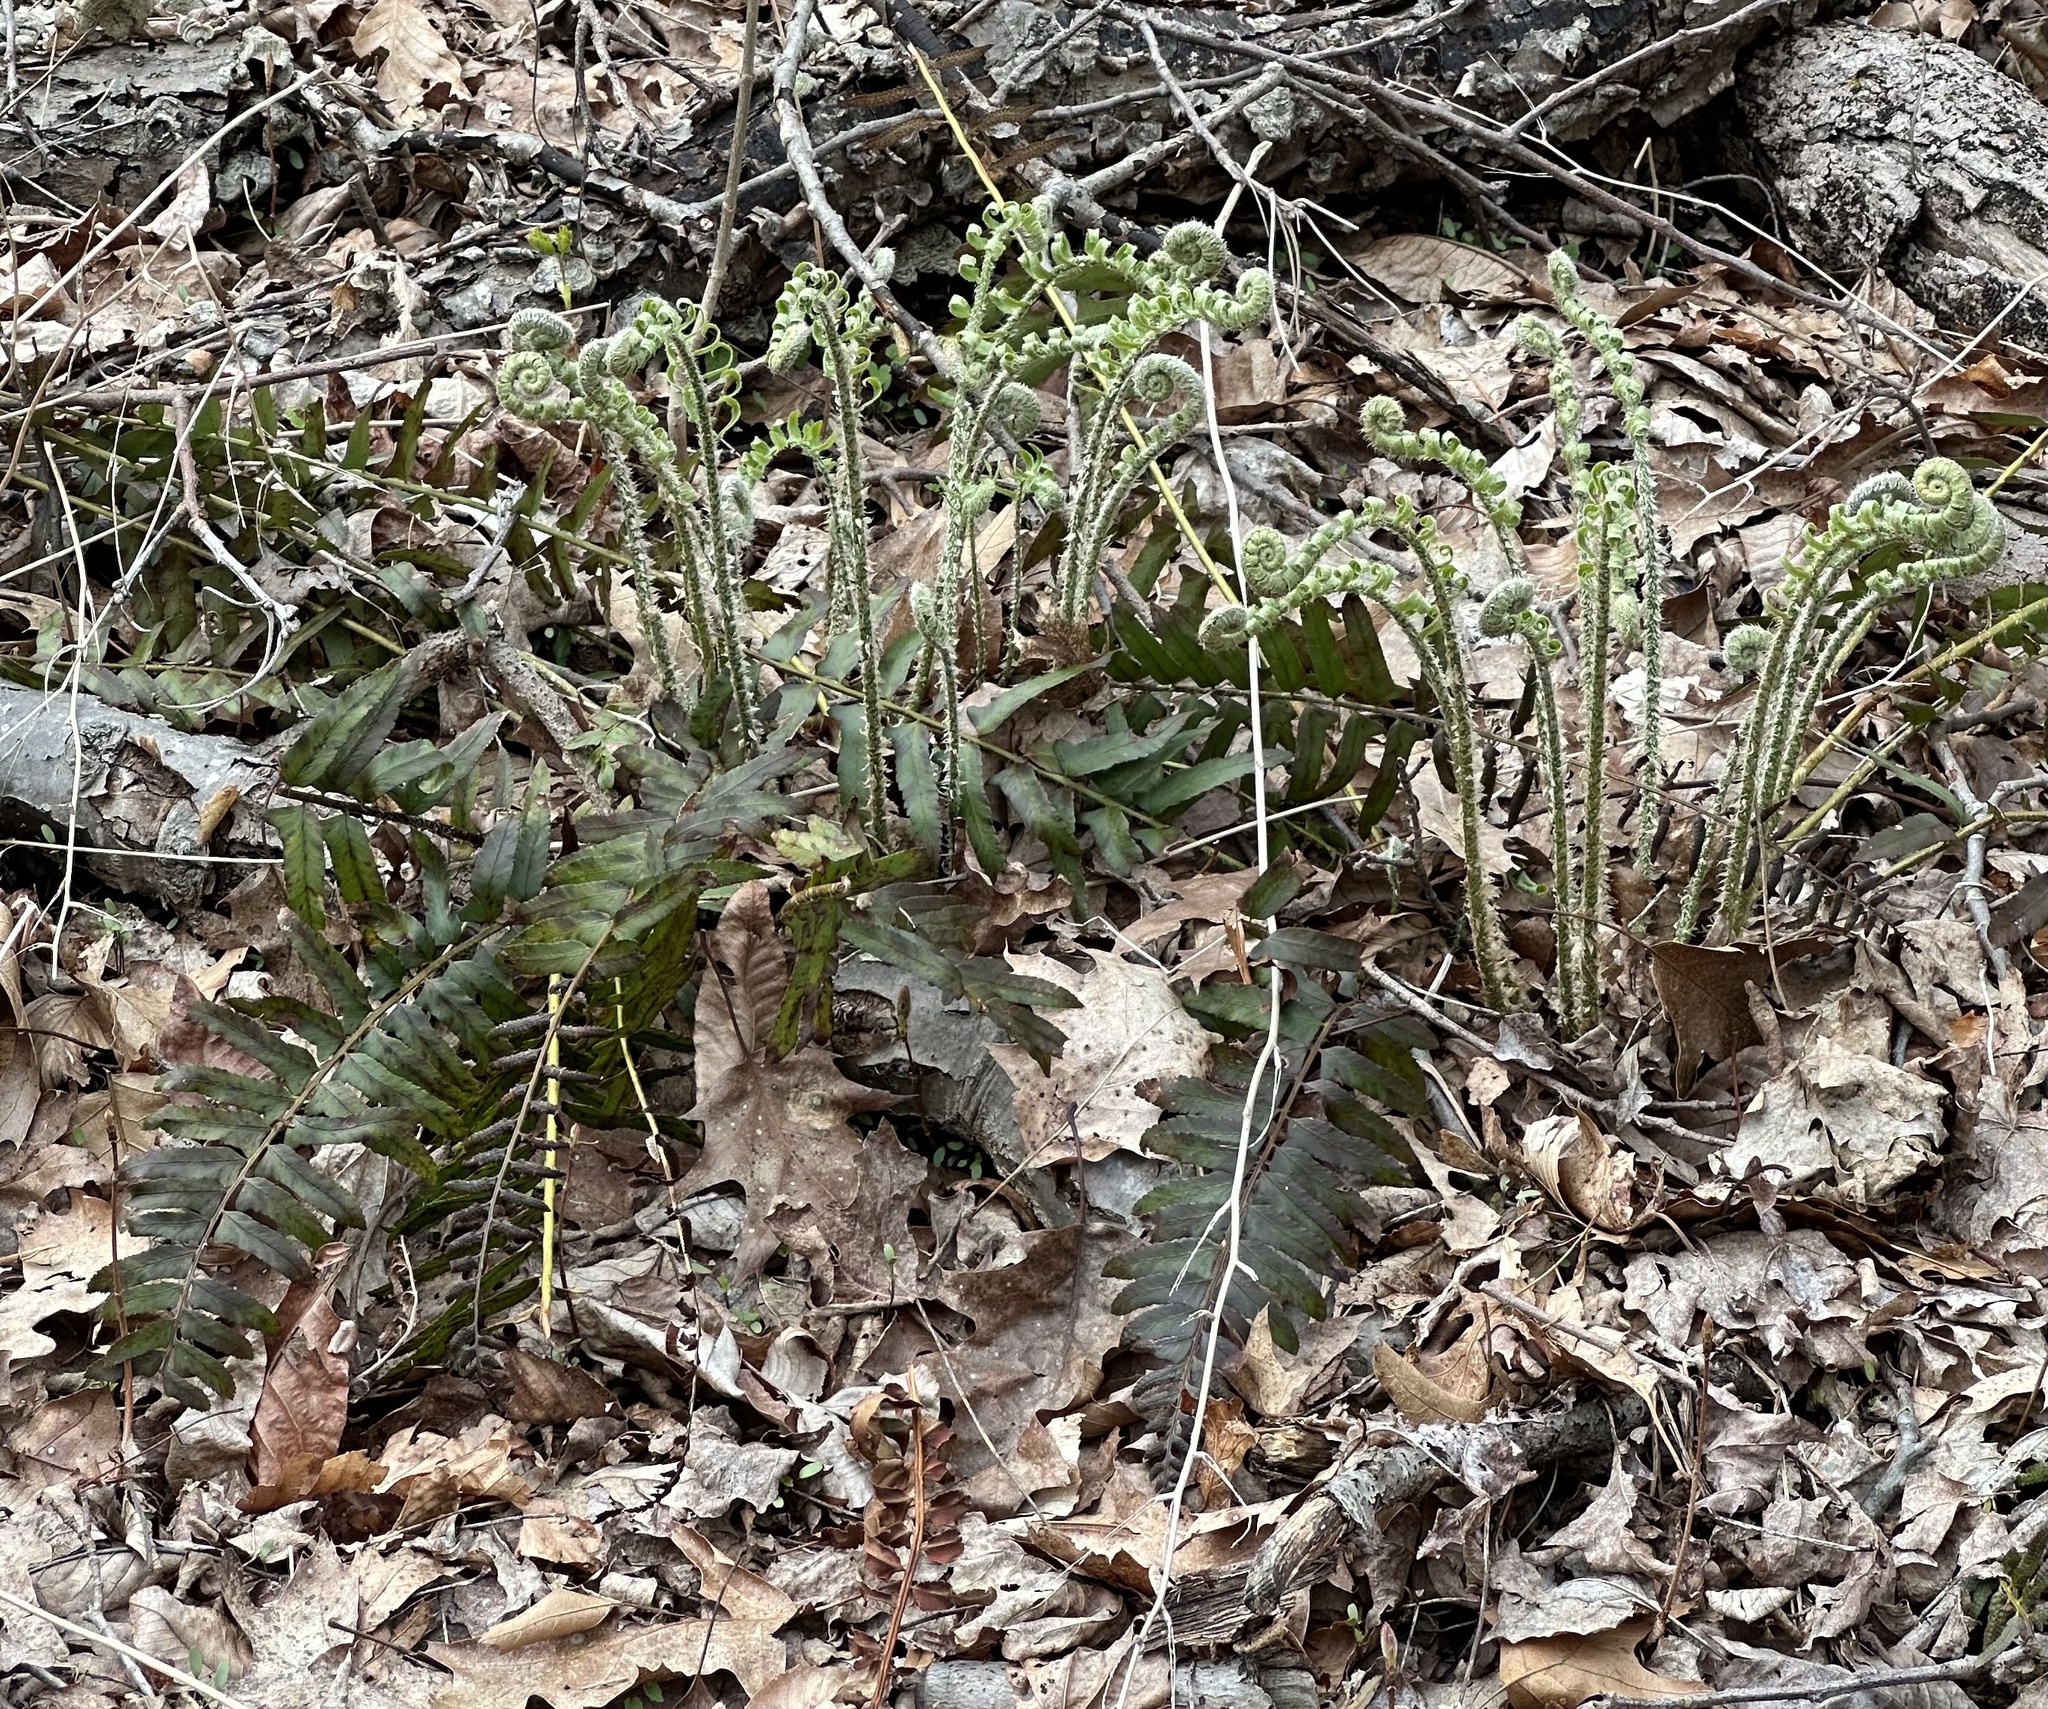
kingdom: Plantae
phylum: Tracheophyta
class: Polypodiopsida
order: Polypodiales
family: Dryopteridaceae
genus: Polystichum
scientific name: Polystichum acrostichoides
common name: Christmas fern
